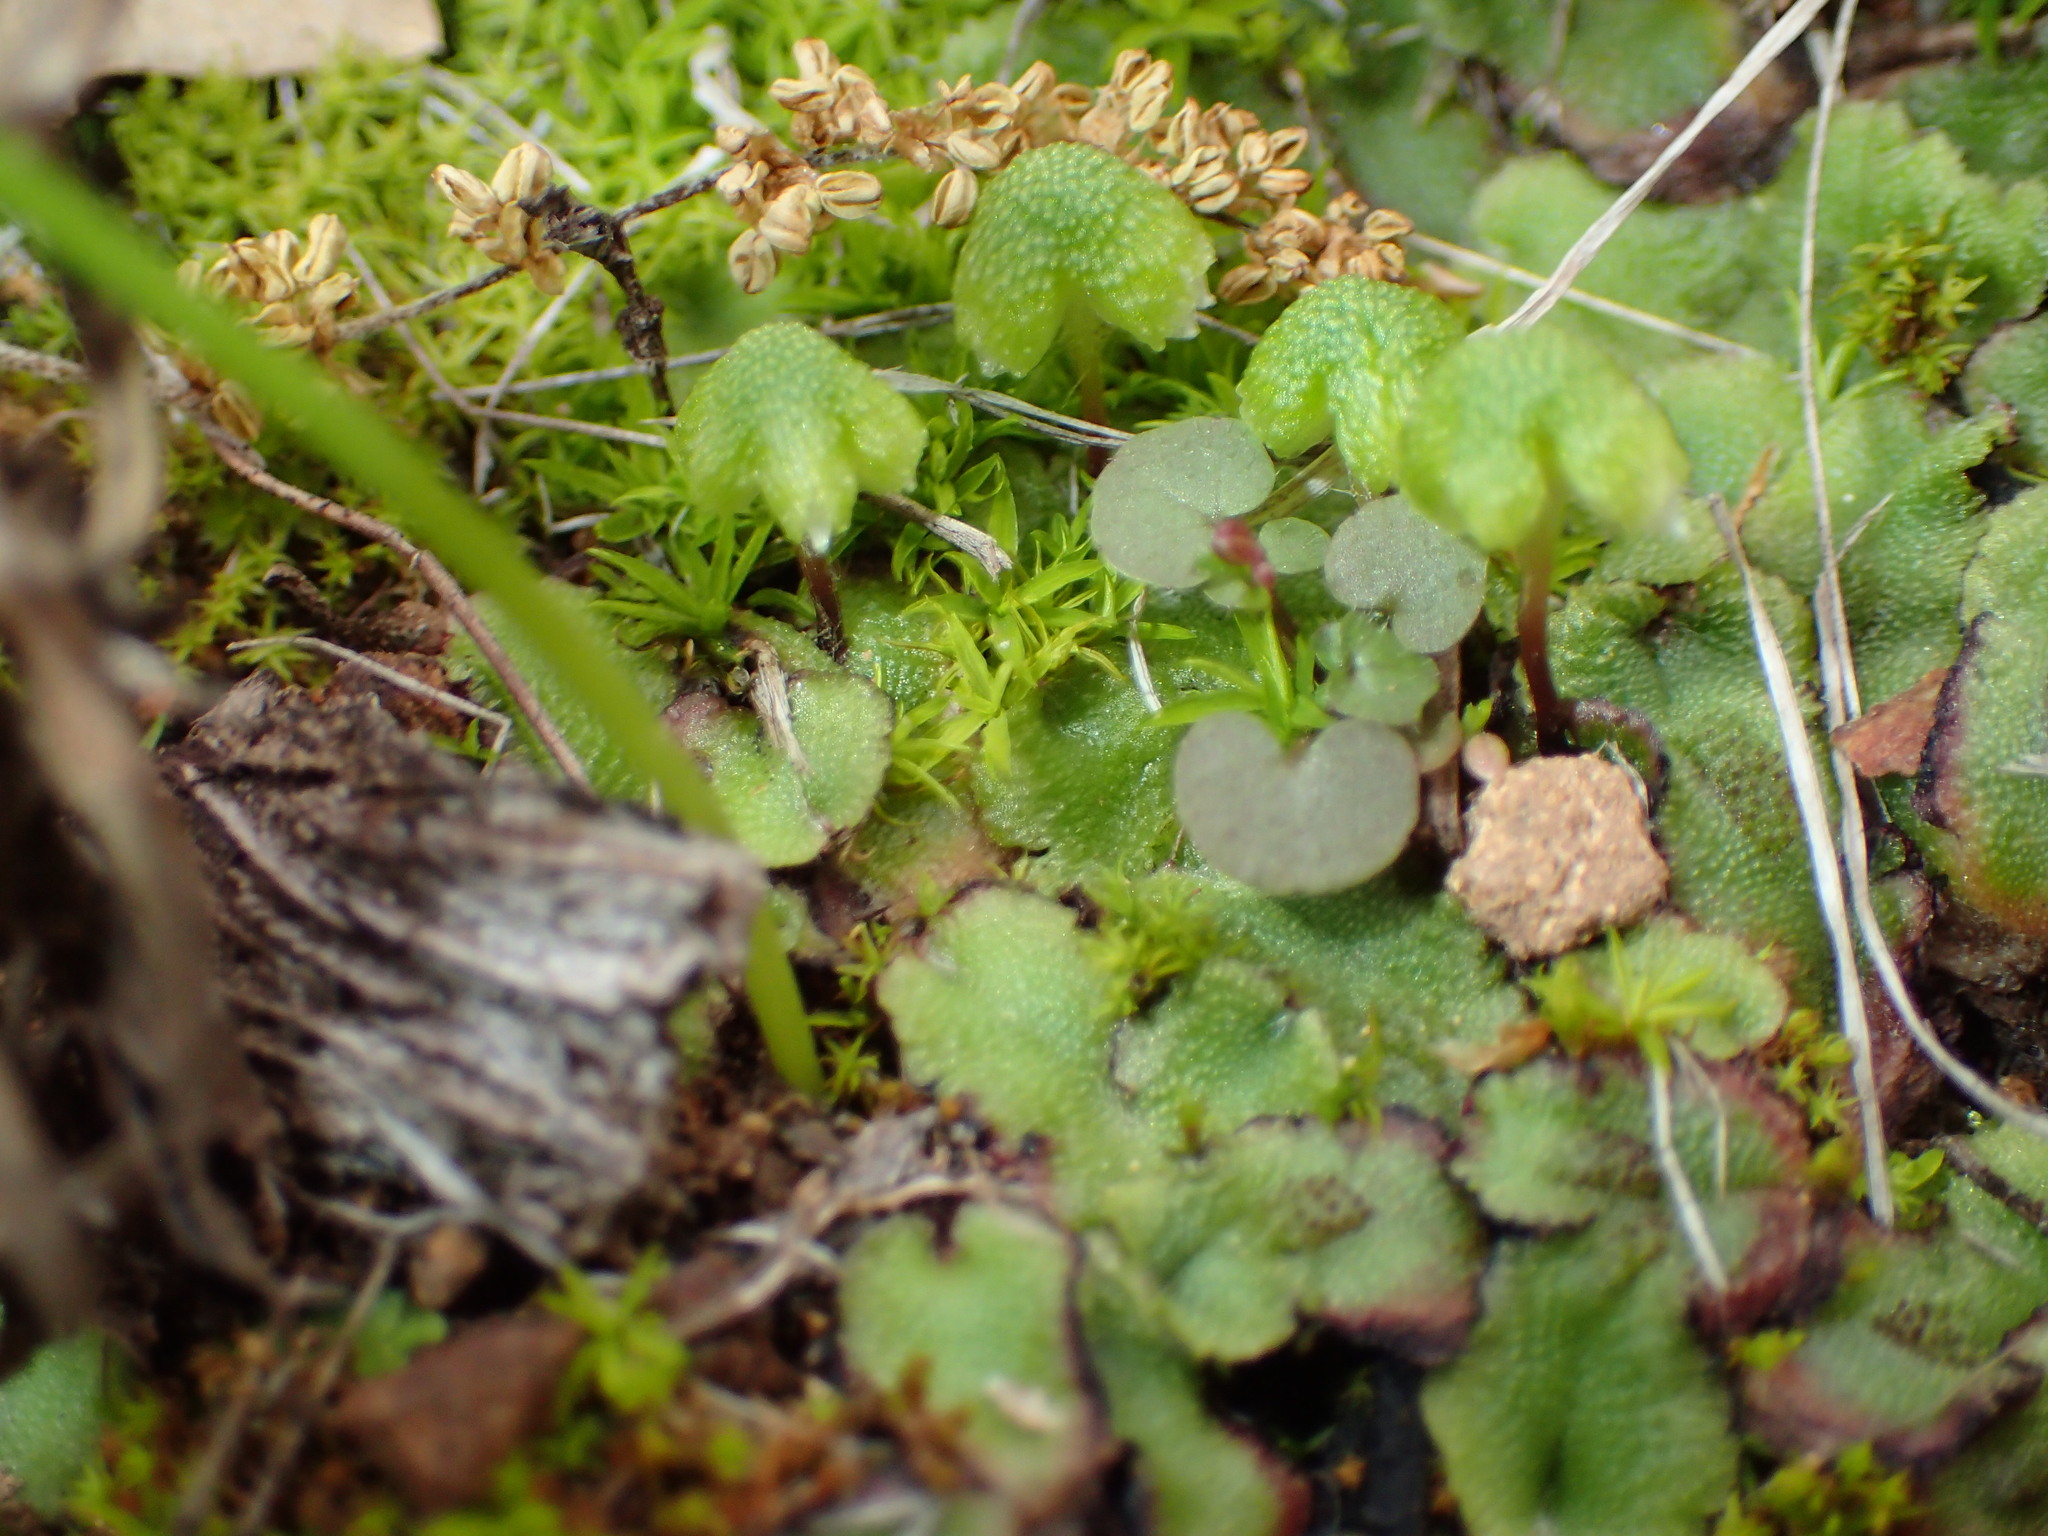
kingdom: Plantae
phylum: Marchantiophyta
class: Marchantiopsida
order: Marchantiales
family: Aytoniaceae
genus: Asterella
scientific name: Asterella californica
